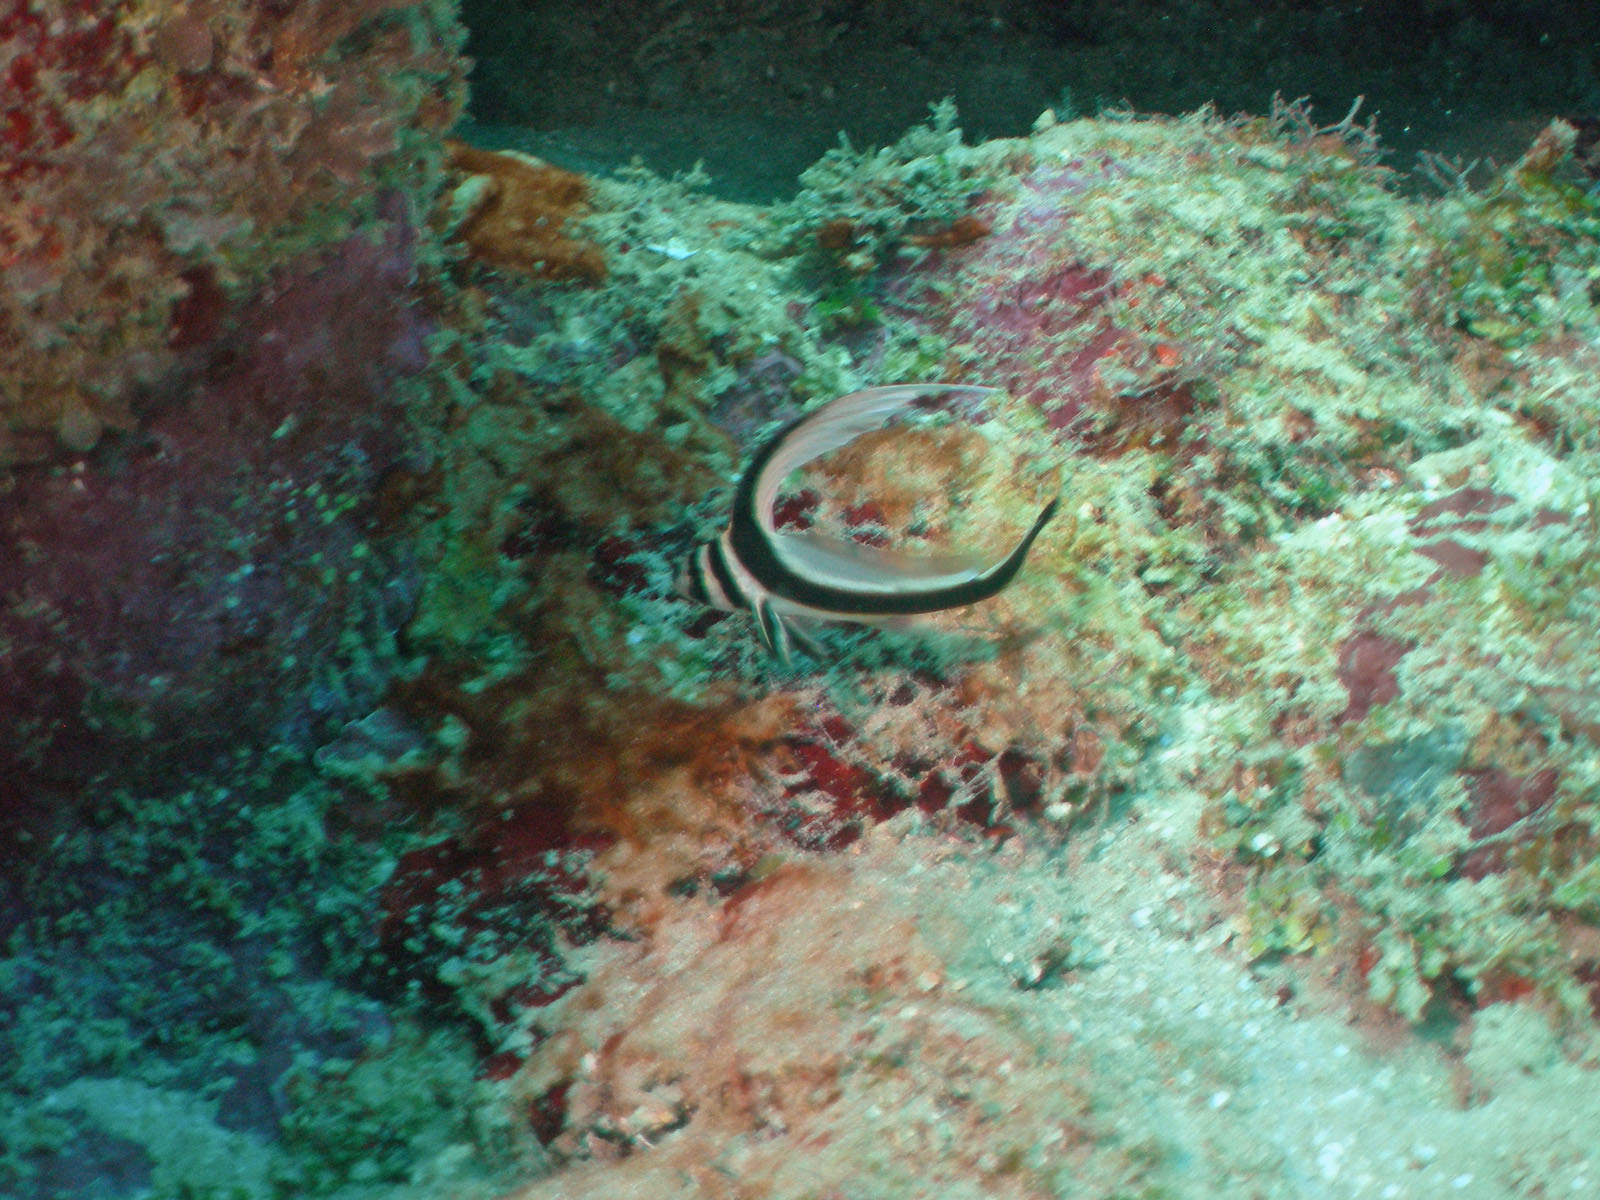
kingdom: Animalia
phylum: Chordata
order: Perciformes
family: Sciaenidae
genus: Equetus
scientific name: Equetus punctatus
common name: Spotted drum
